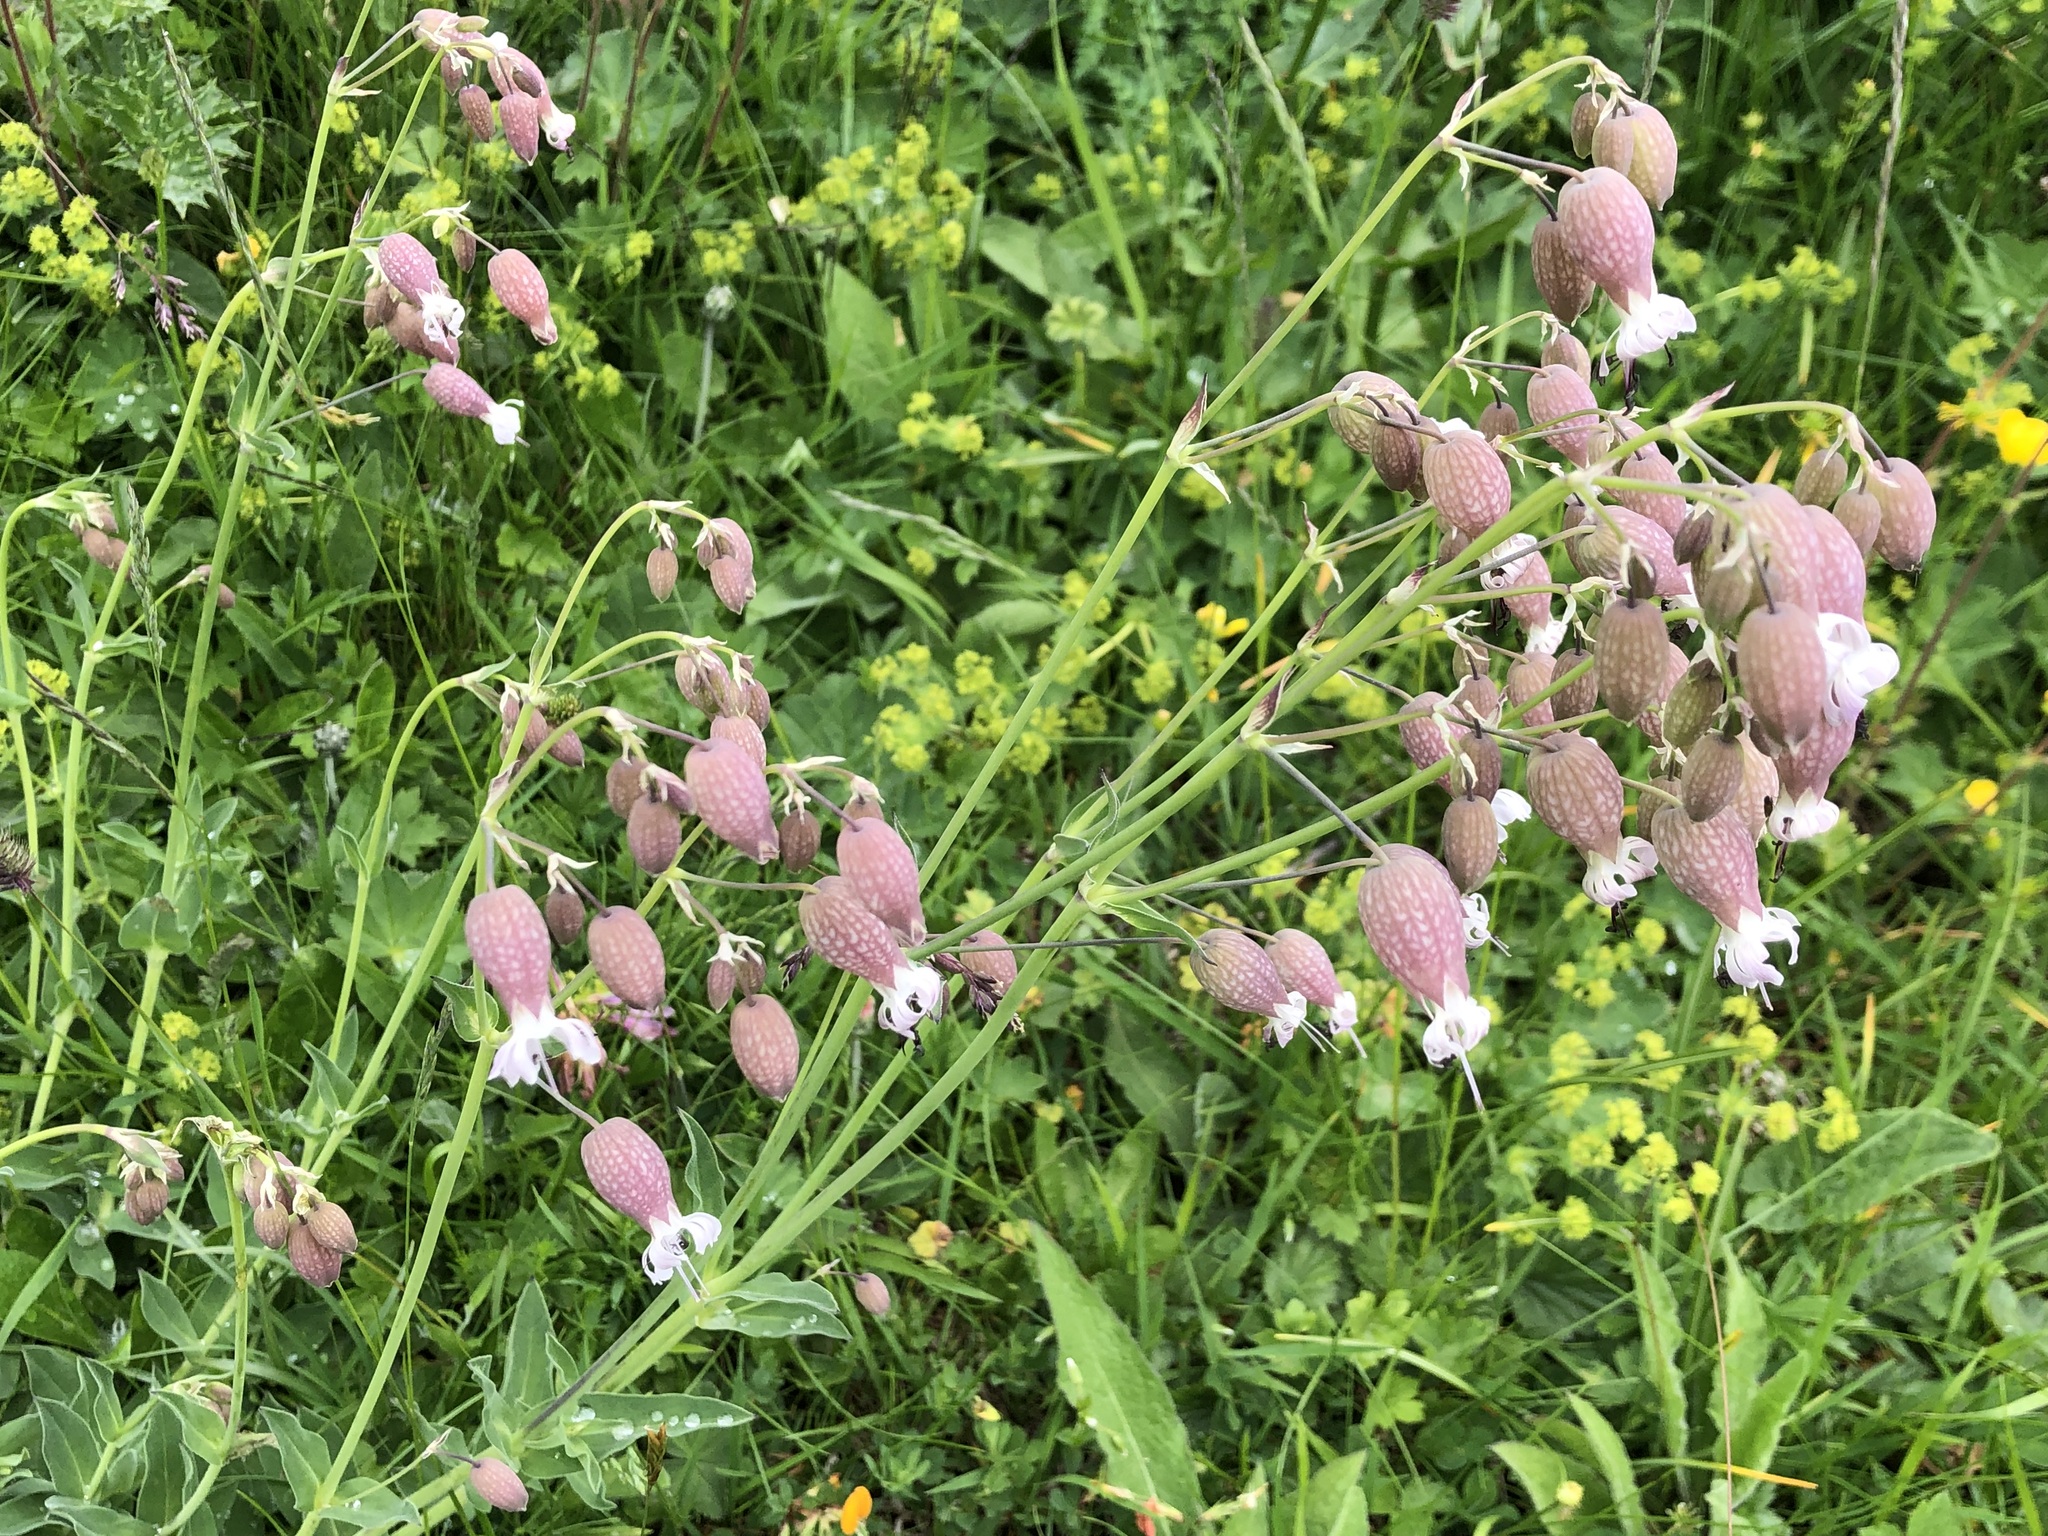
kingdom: Plantae
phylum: Tracheophyta
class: Magnoliopsida
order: Caryophyllales
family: Caryophyllaceae
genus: Silene
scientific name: Silene vulgaris
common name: Bladder campion
